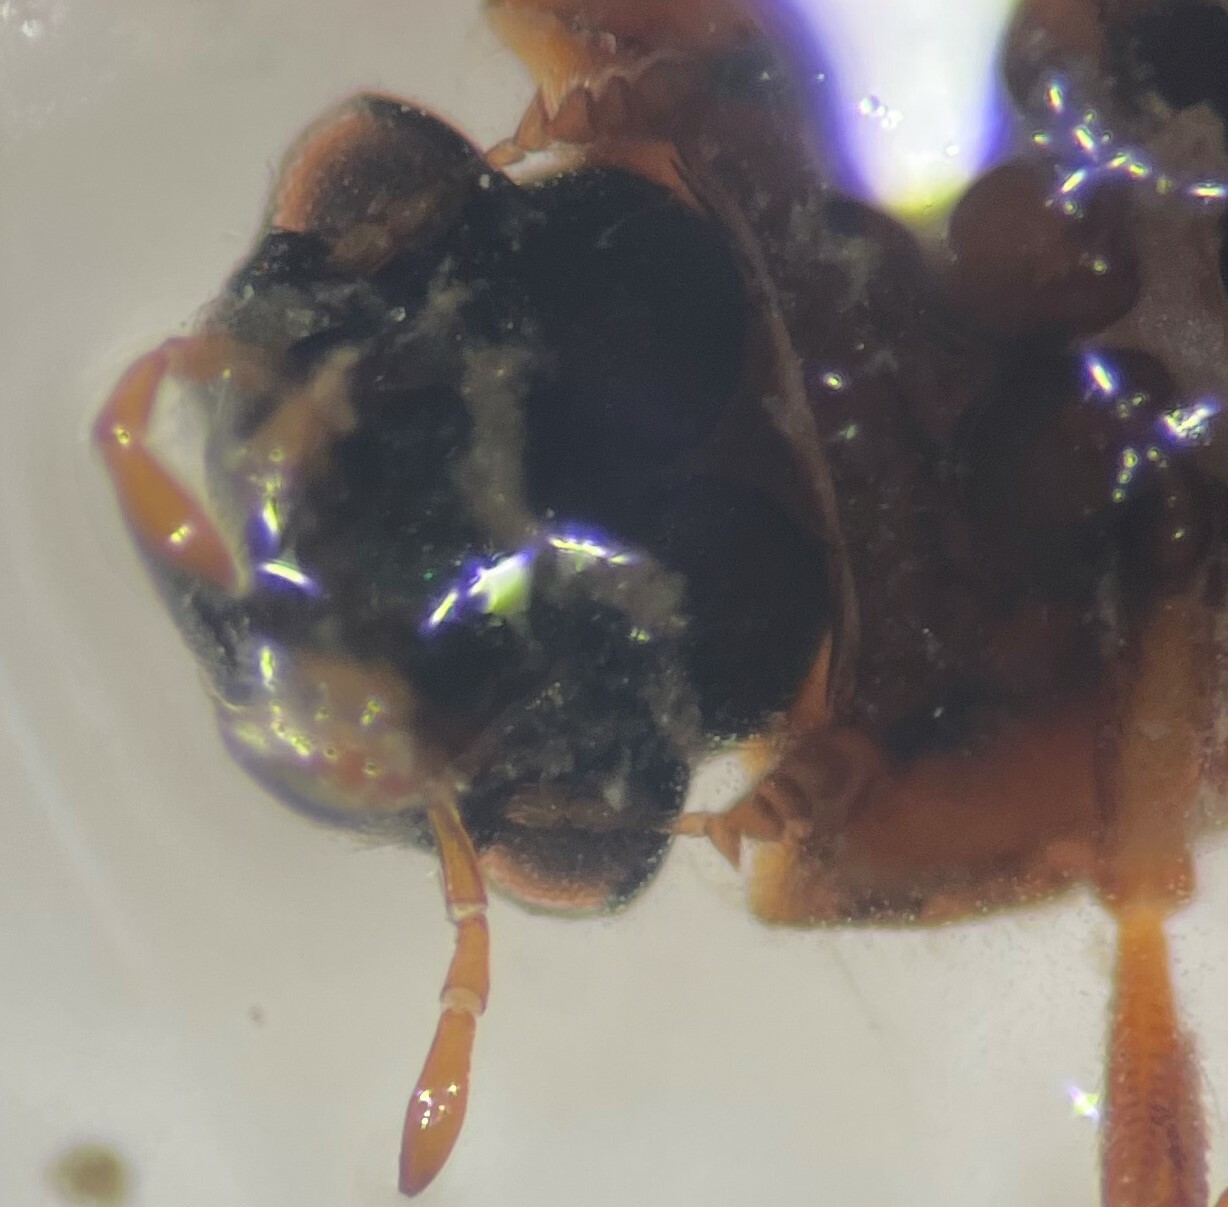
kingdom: Animalia
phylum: Arthropoda
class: Insecta
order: Coleoptera
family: Helophoridae
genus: Helophorus
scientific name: Helophorus angusticollis
